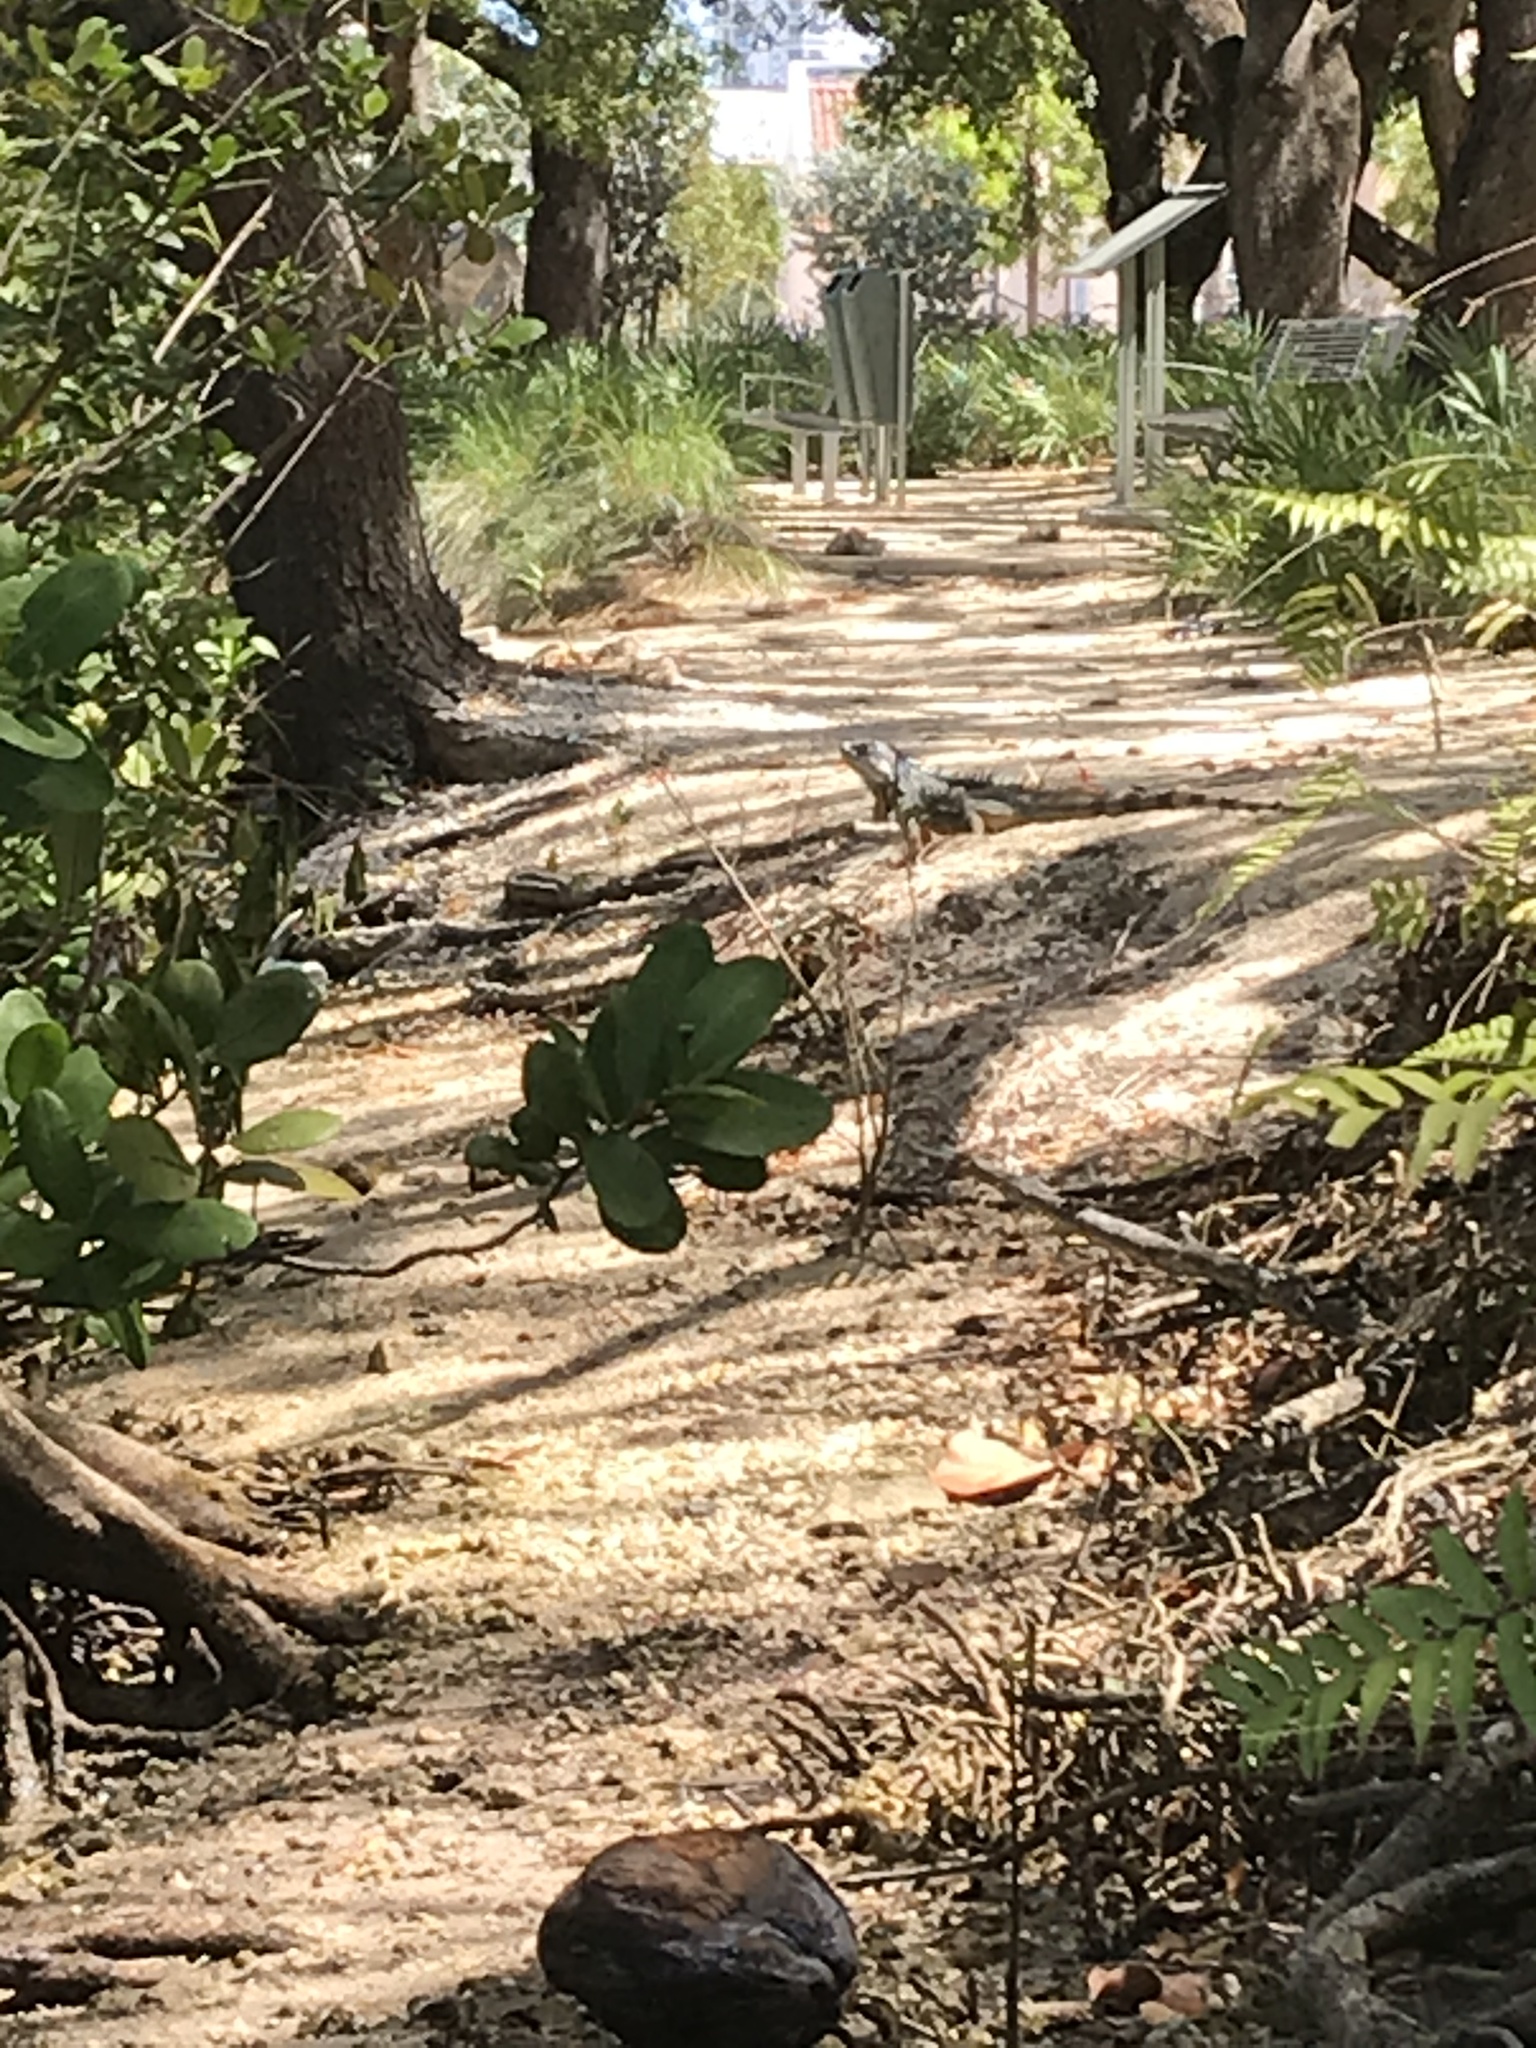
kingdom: Animalia
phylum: Chordata
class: Squamata
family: Iguanidae
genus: Iguana
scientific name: Iguana iguana
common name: Green iguana
